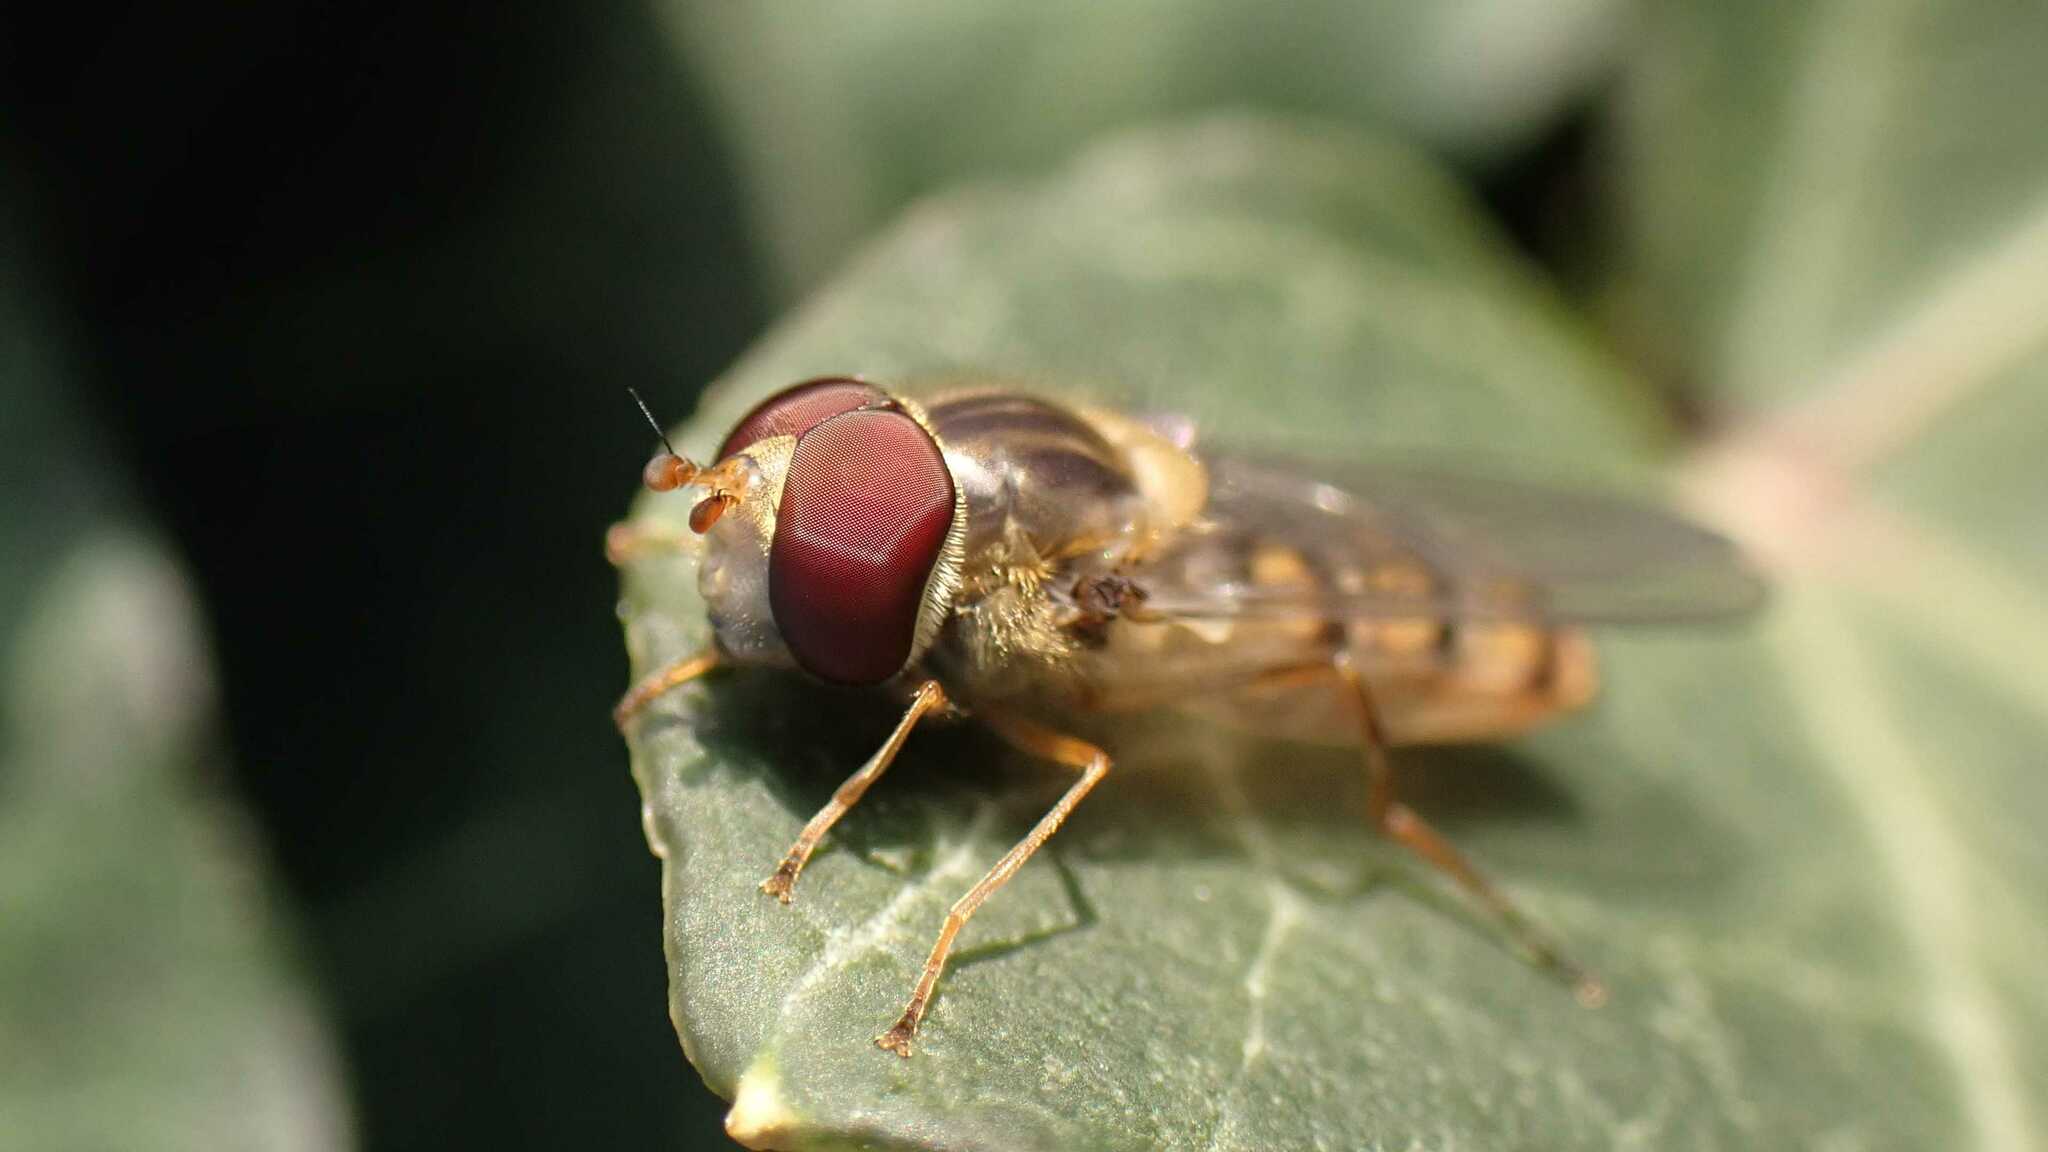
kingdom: Animalia
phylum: Arthropoda
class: Insecta
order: Diptera
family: Syrphidae
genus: Episyrphus
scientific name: Episyrphus balteatus
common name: Marmalade hoverfly
